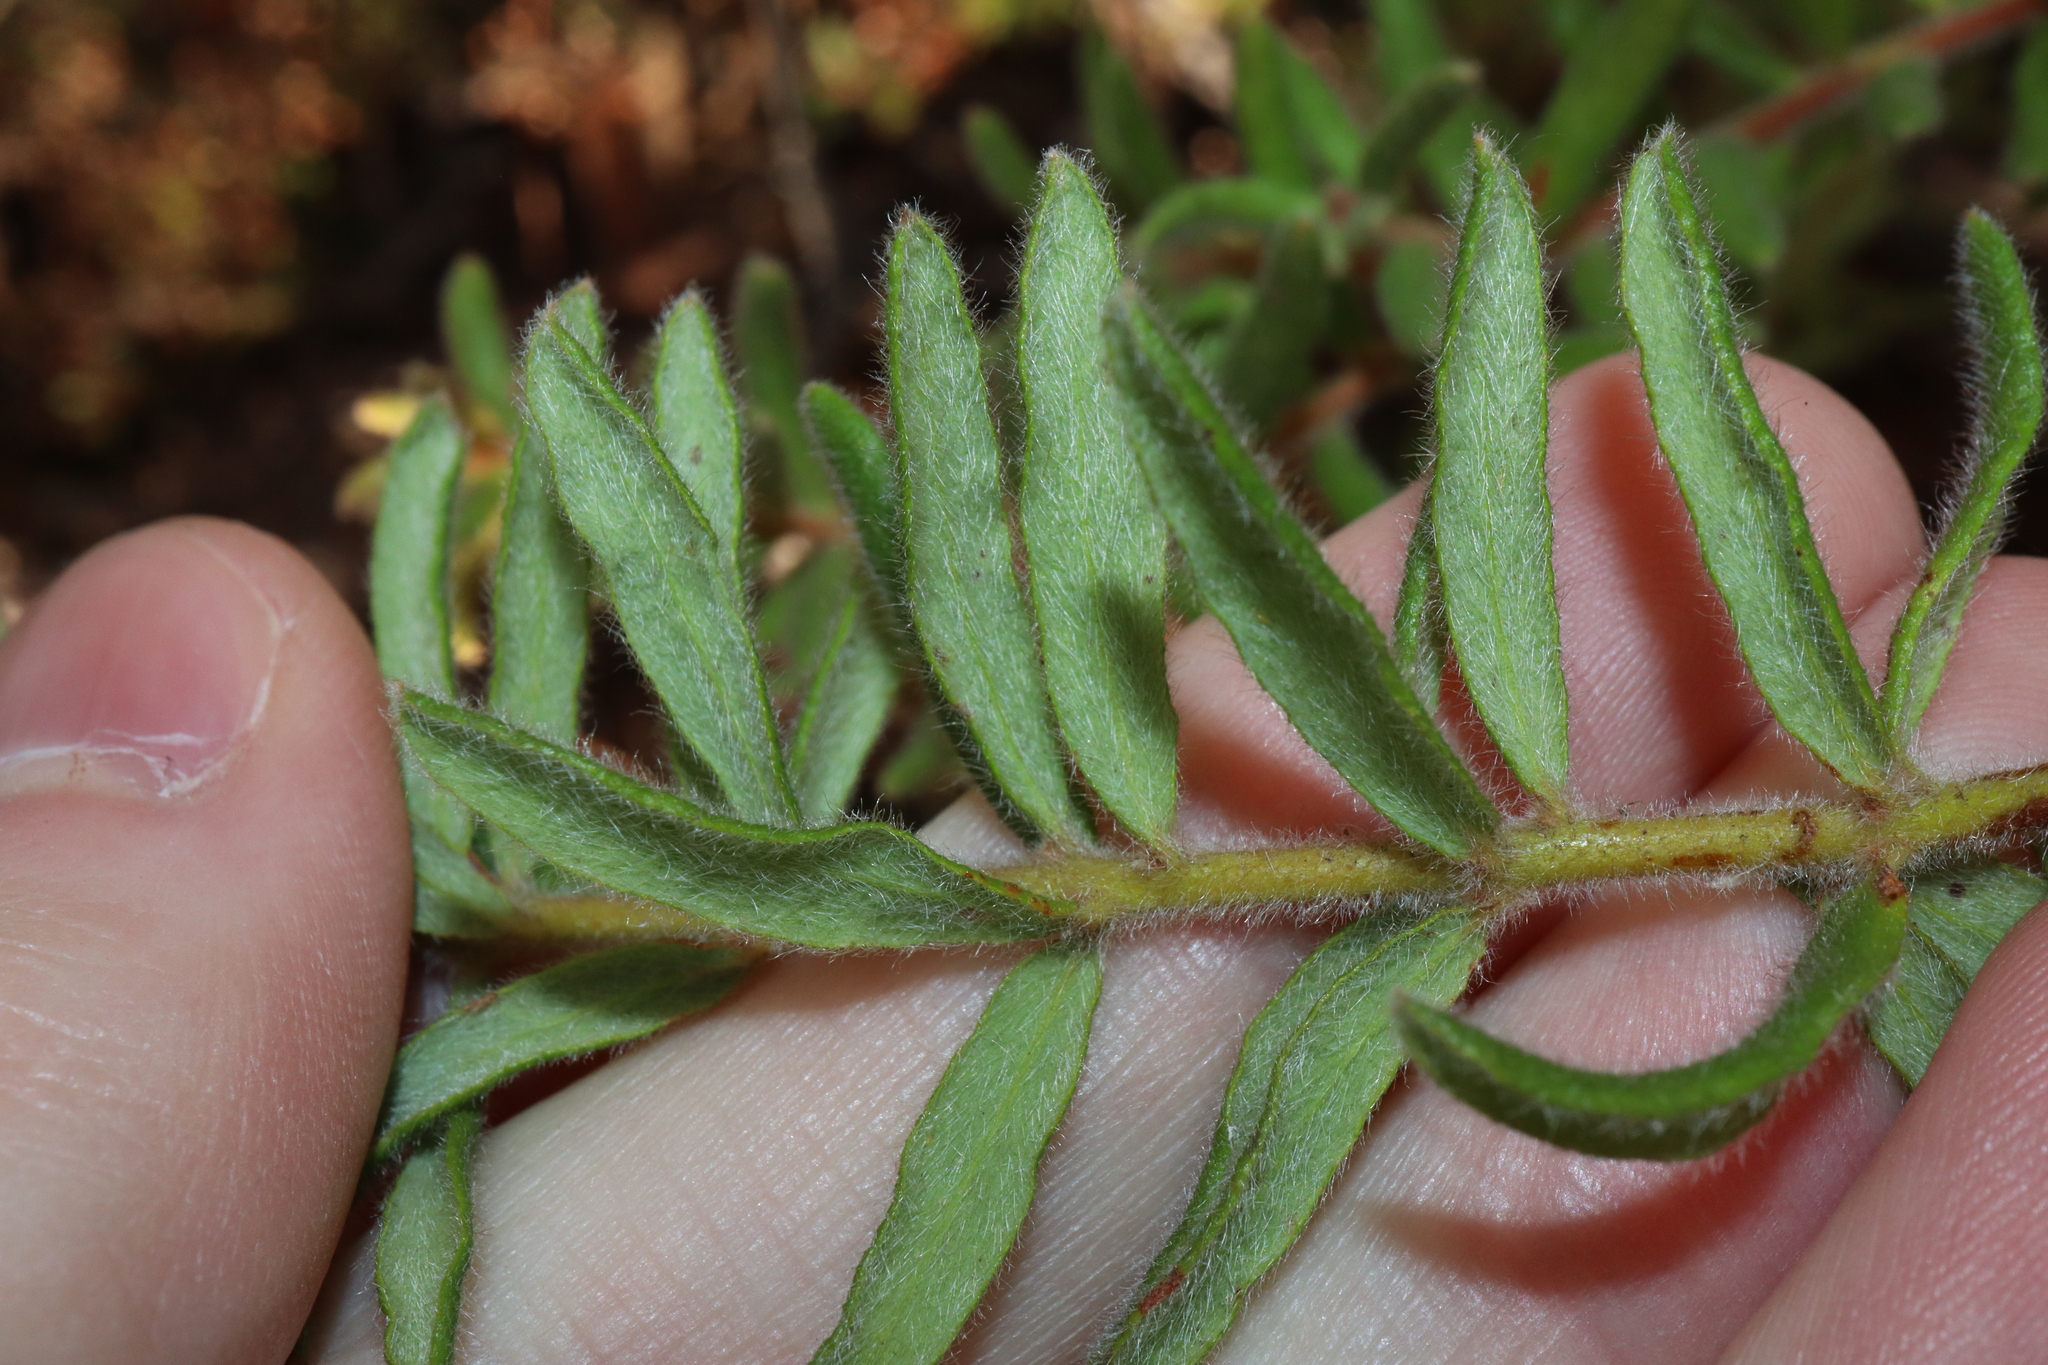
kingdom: Plantae
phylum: Tracheophyta
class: Magnoliopsida
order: Proteales
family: Proteaceae
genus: Grevillea
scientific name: Grevillea alpina
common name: Catclaws grevillea
